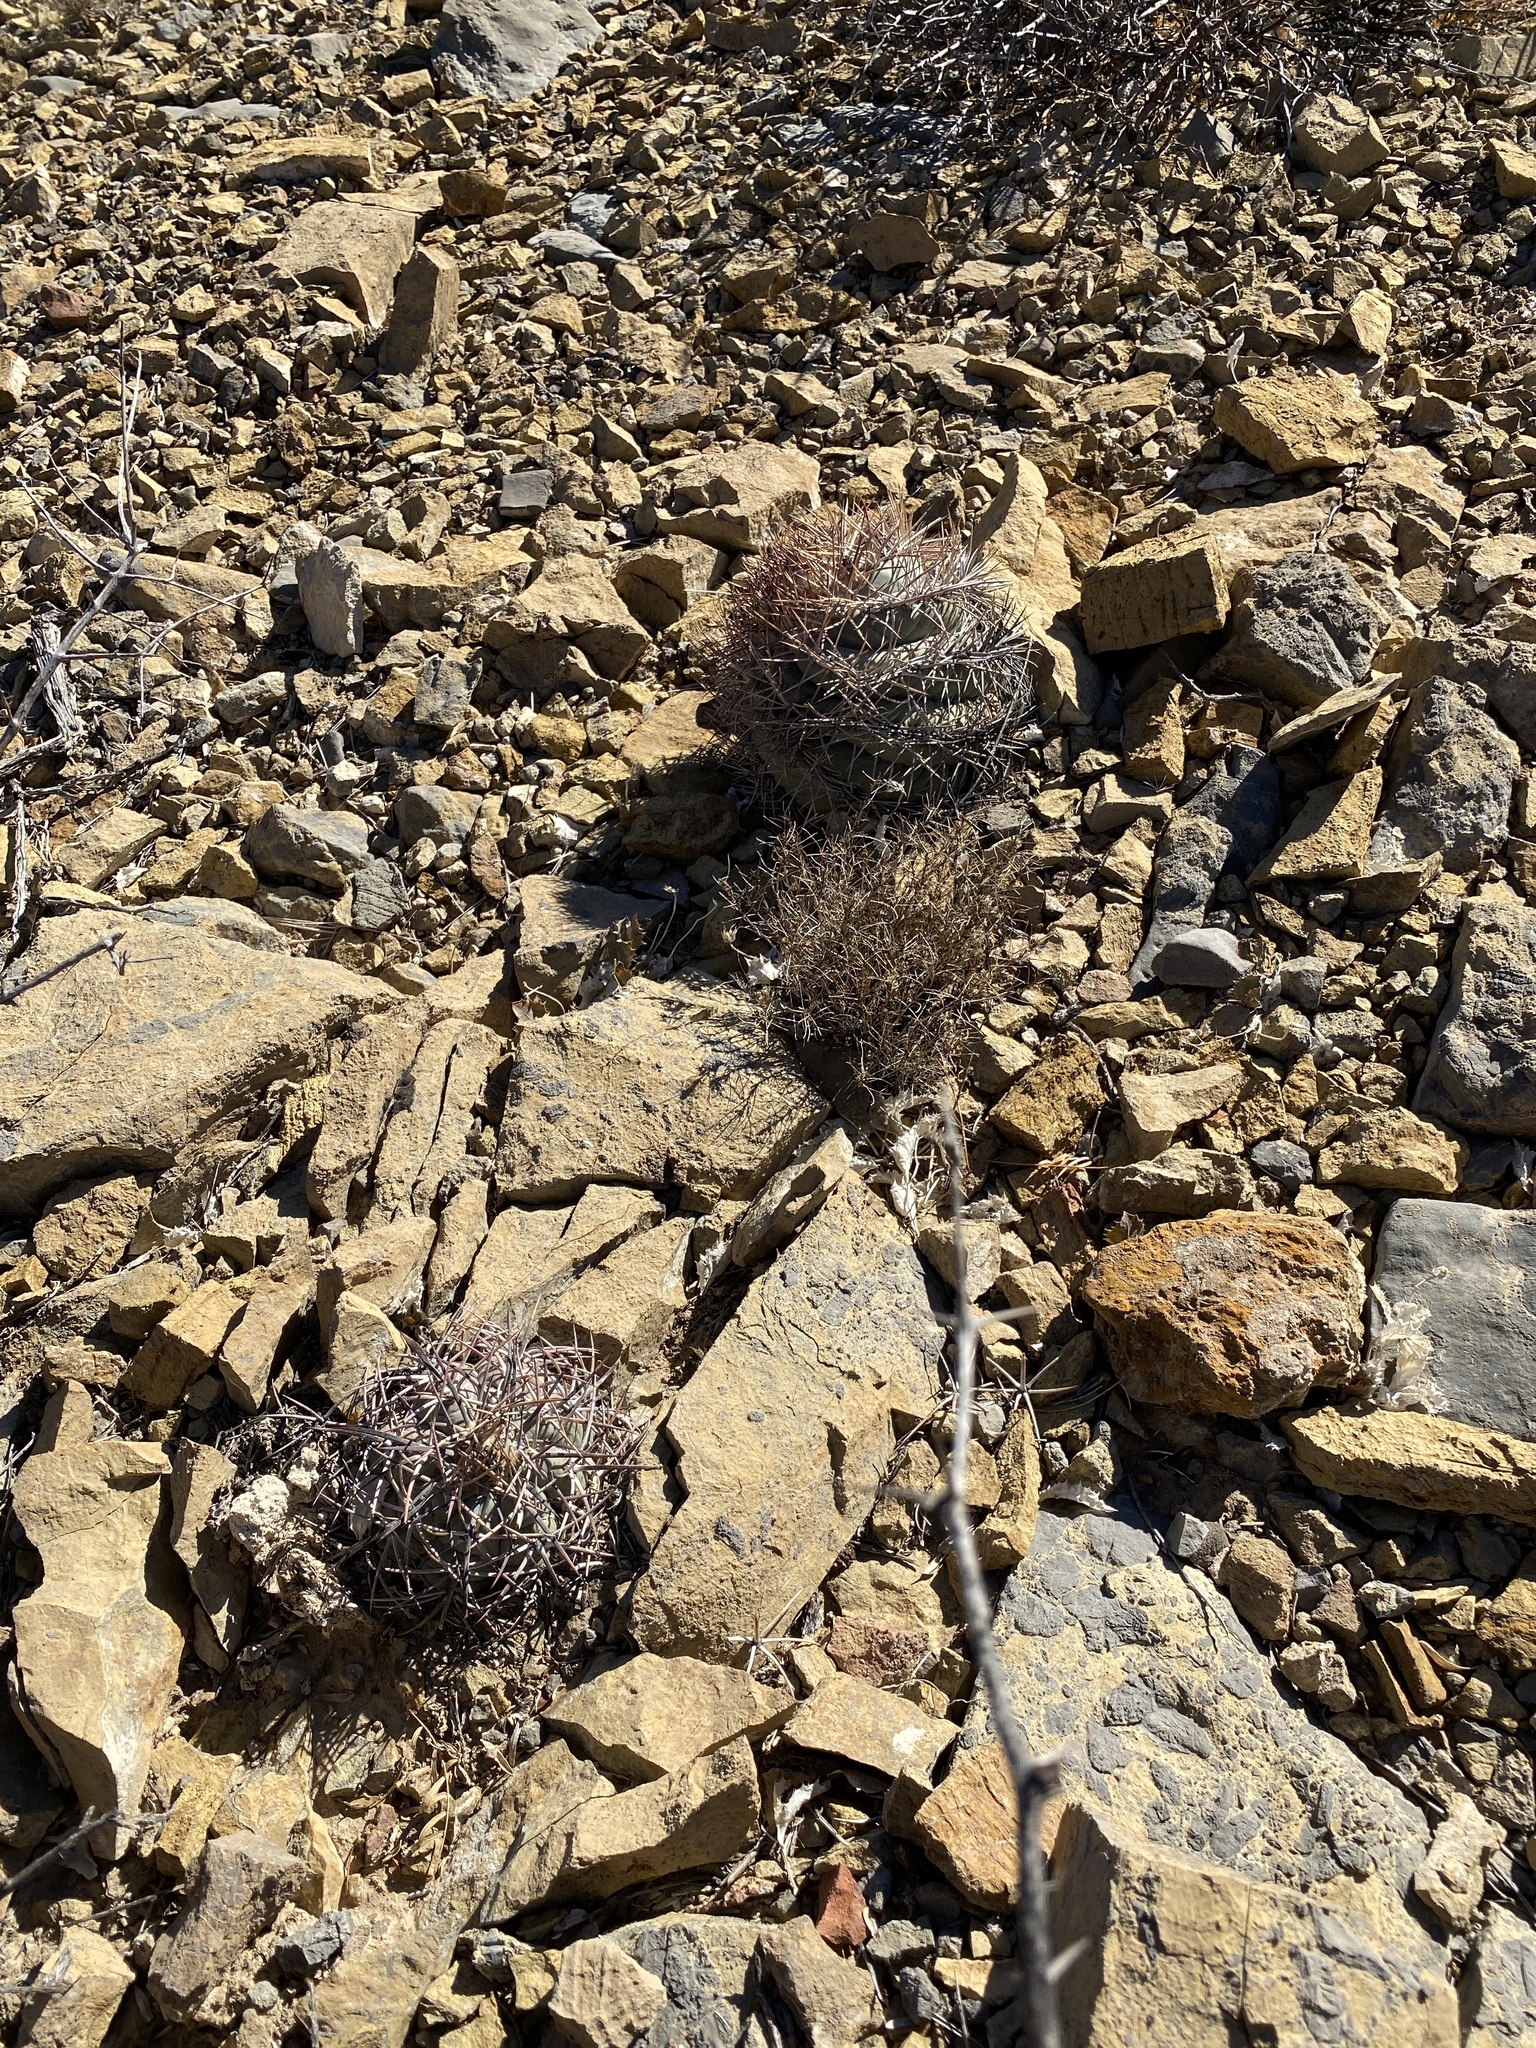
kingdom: Plantae
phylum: Tracheophyta
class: Magnoliopsida
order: Caryophyllales
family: Cactaceae
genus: Echinocactus
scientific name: Echinocactus horizonthalonius
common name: Devilshead
